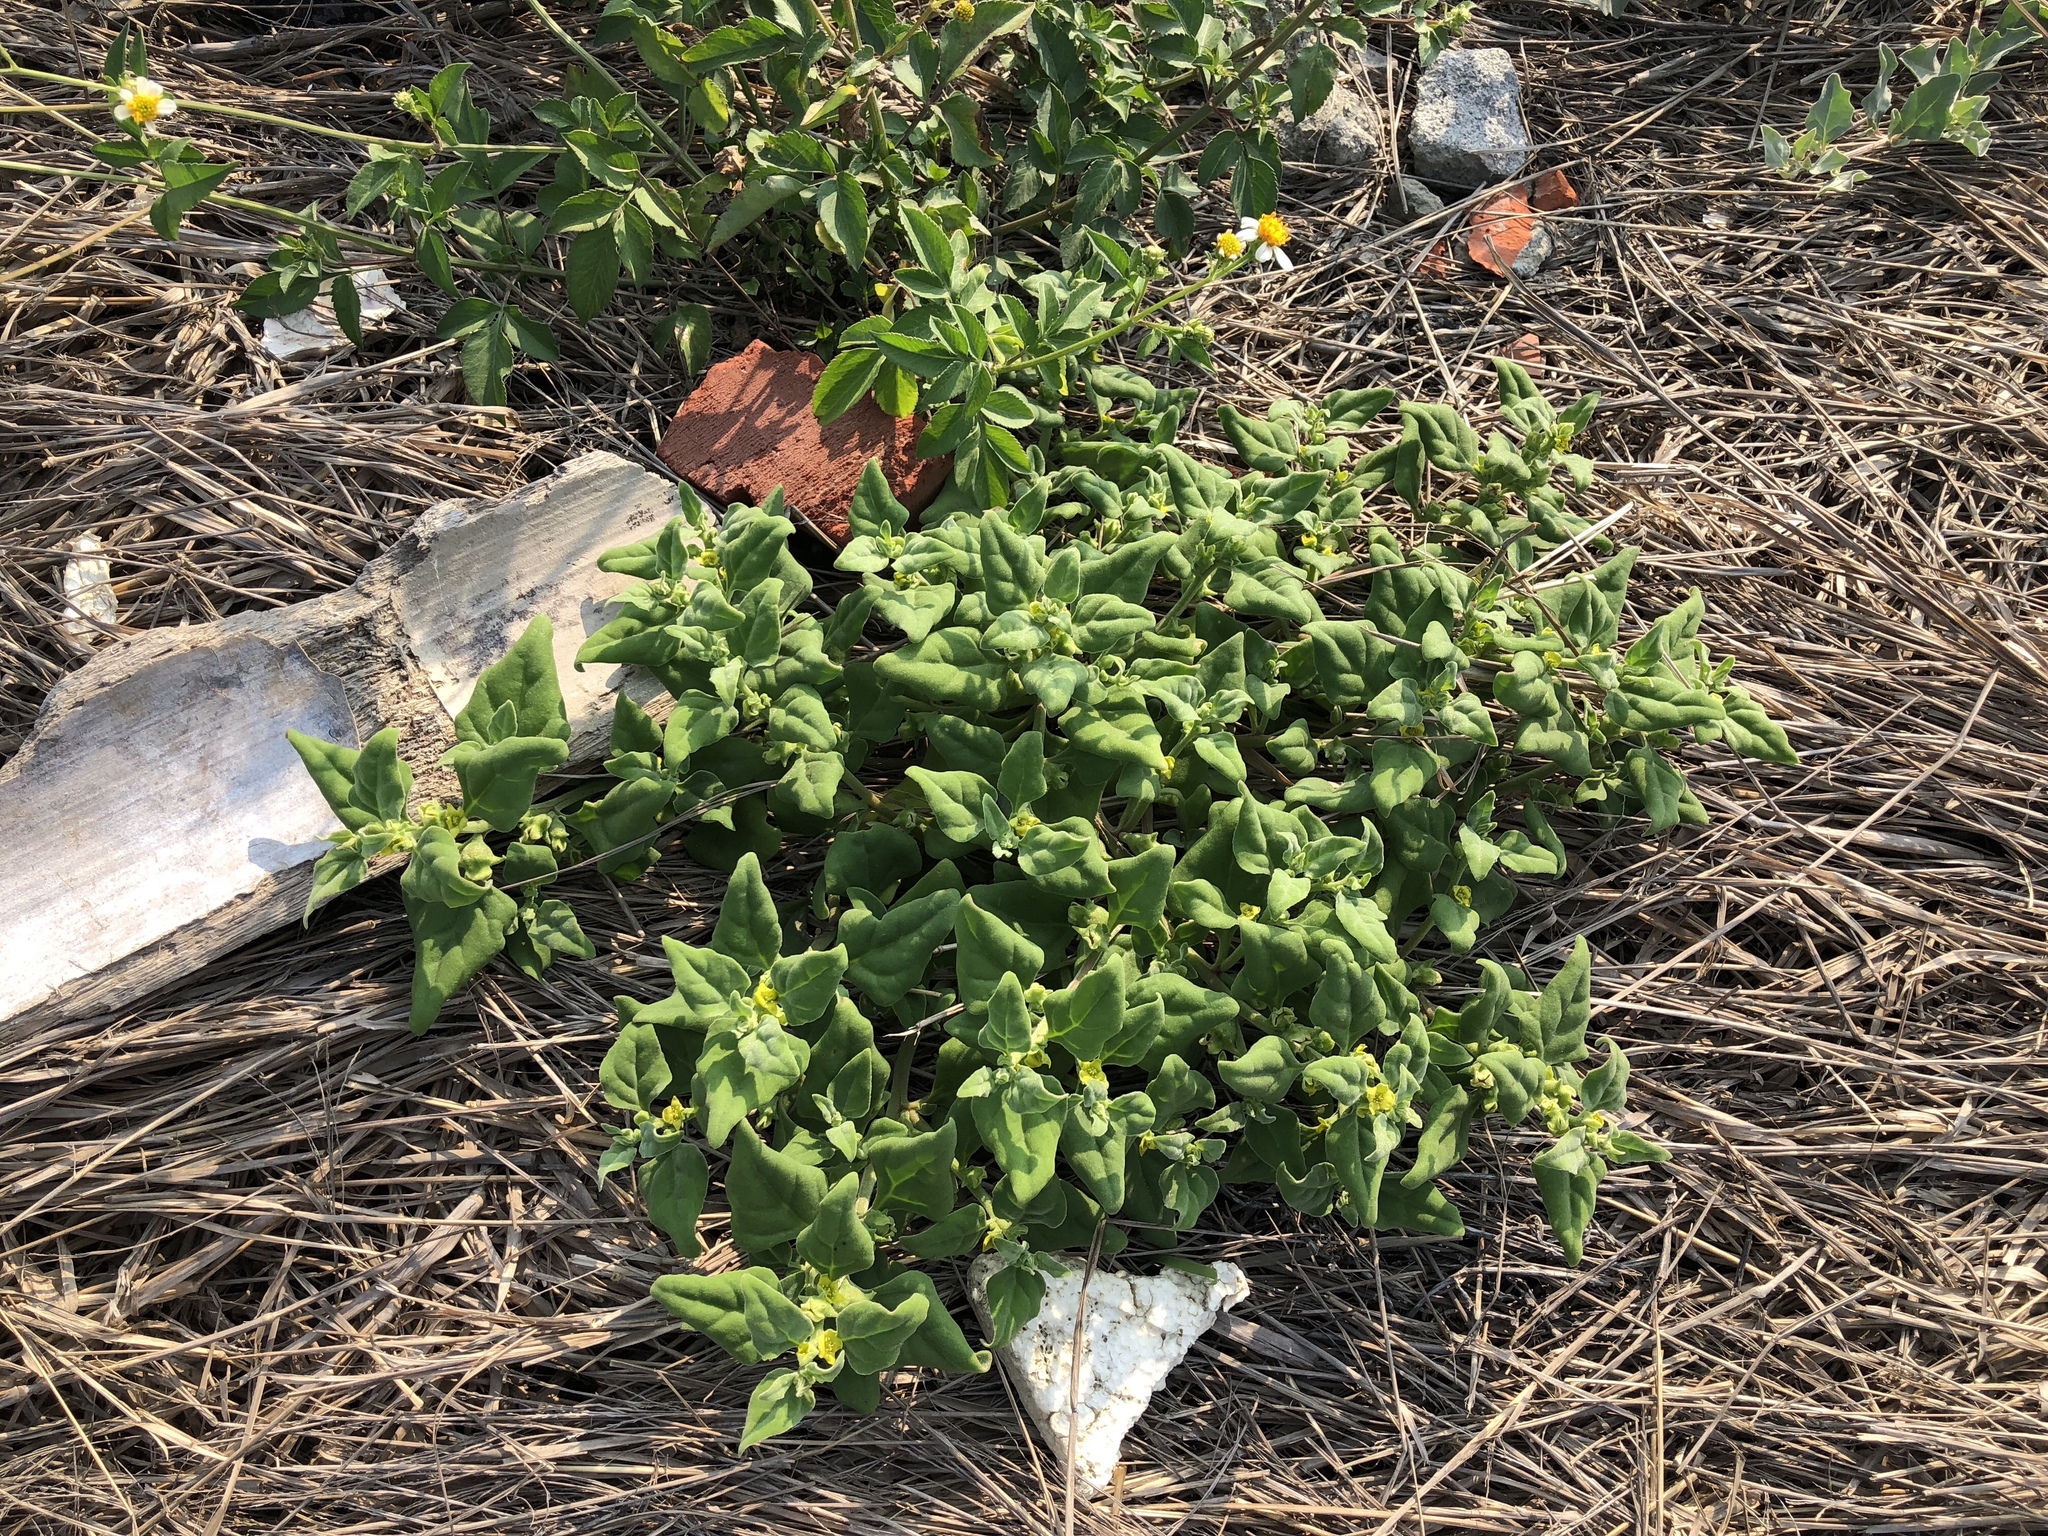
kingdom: Plantae
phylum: Tracheophyta
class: Magnoliopsida
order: Caryophyllales
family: Aizoaceae
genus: Tetragonia
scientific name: Tetragonia tetragonoides
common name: New zealand-spinach
